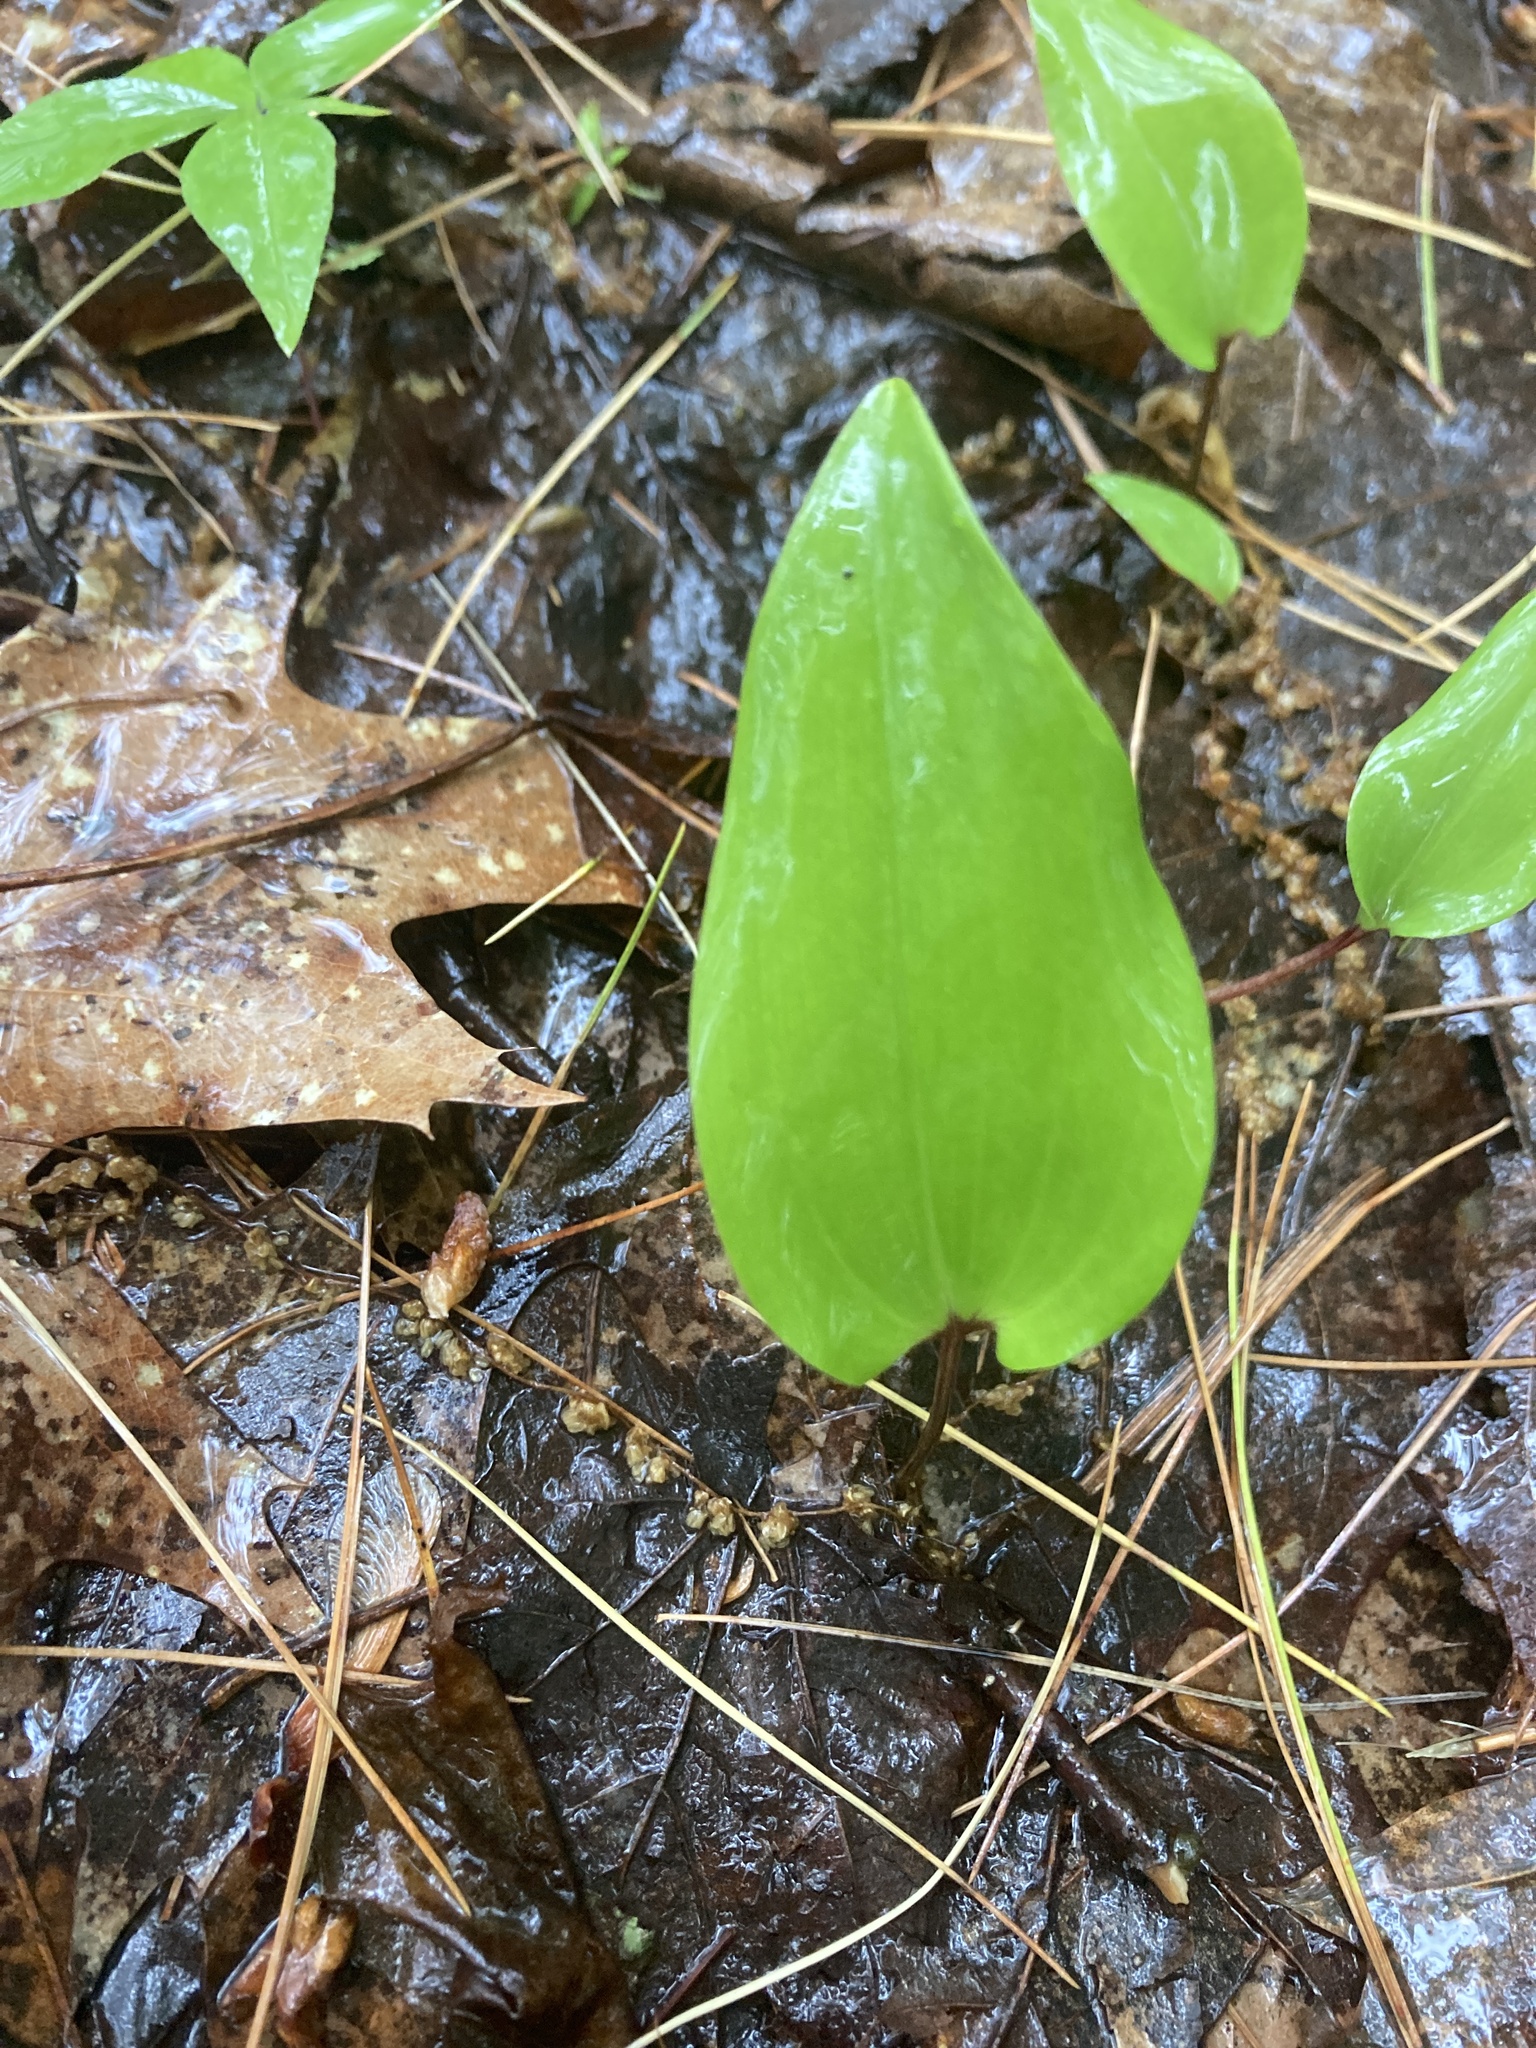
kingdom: Plantae
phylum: Tracheophyta
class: Liliopsida
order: Asparagales
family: Asparagaceae
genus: Maianthemum
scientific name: Maianthemum canadense
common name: False lily-of-the-valley
